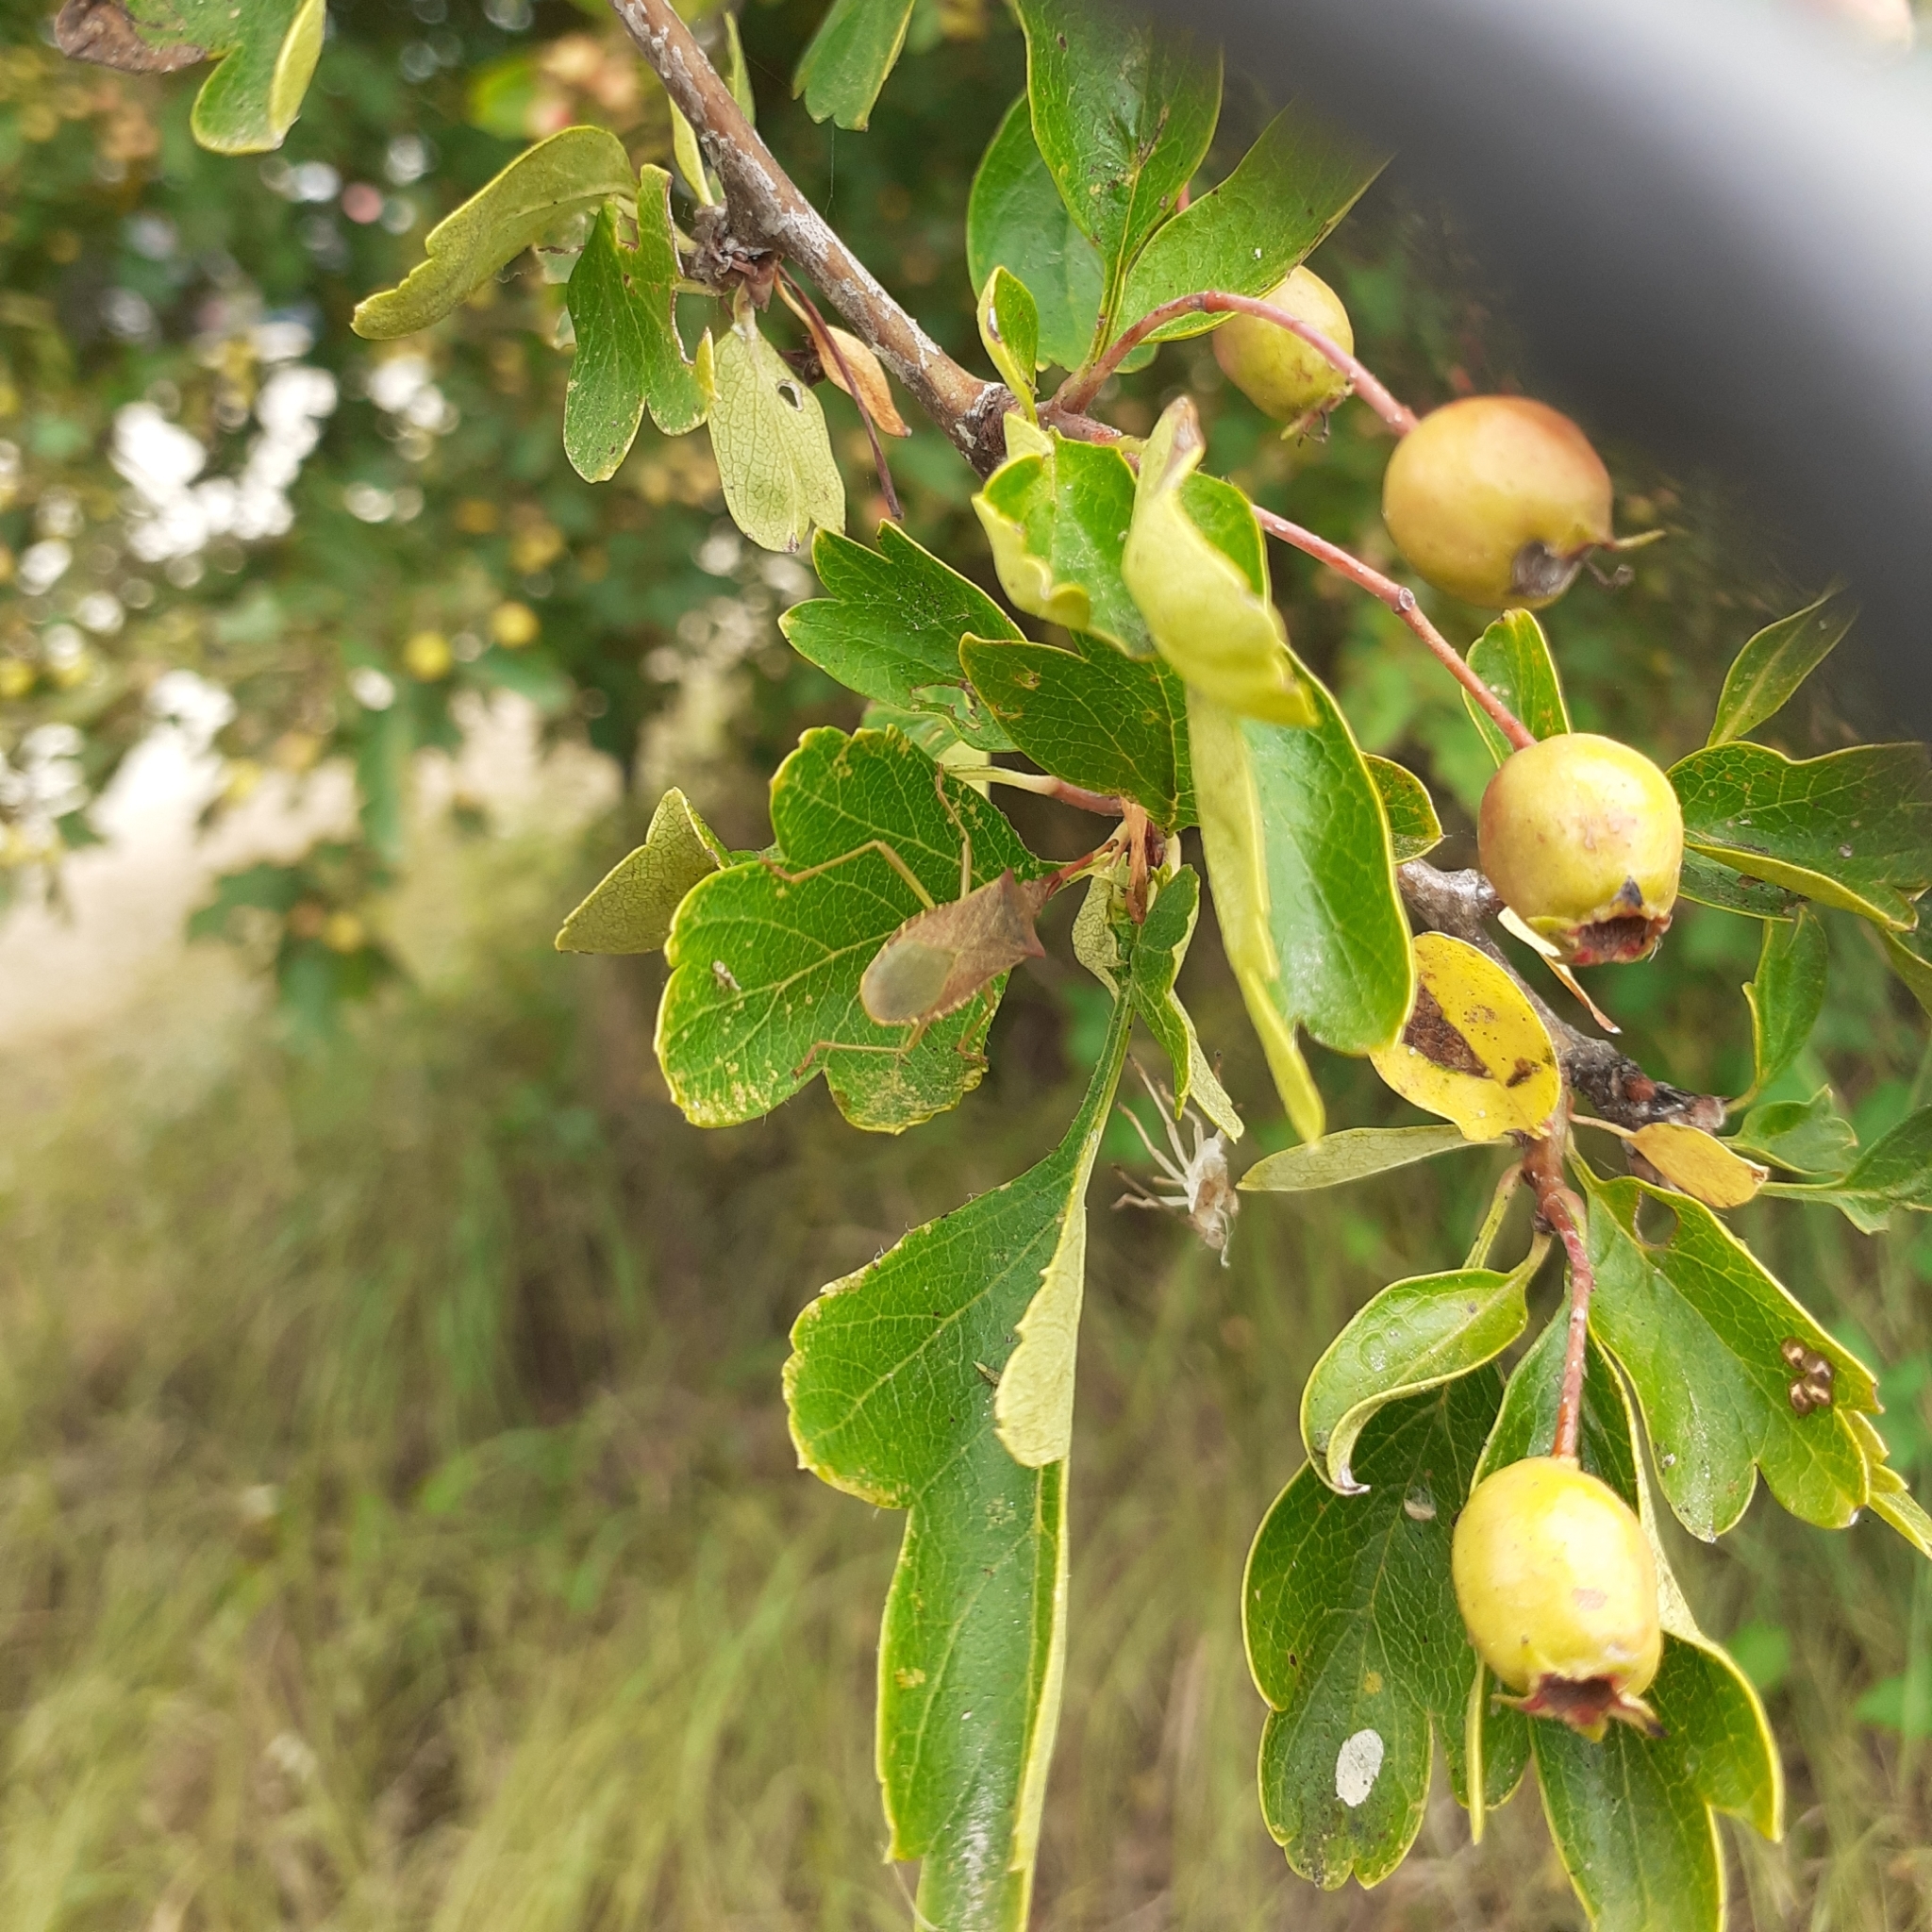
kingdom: Plantae
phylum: Tracheophyta
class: Magnoliopsida
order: Rosales
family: Rosaceae
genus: Crataegus
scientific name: Crataegus monogyna
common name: Hawthorn
